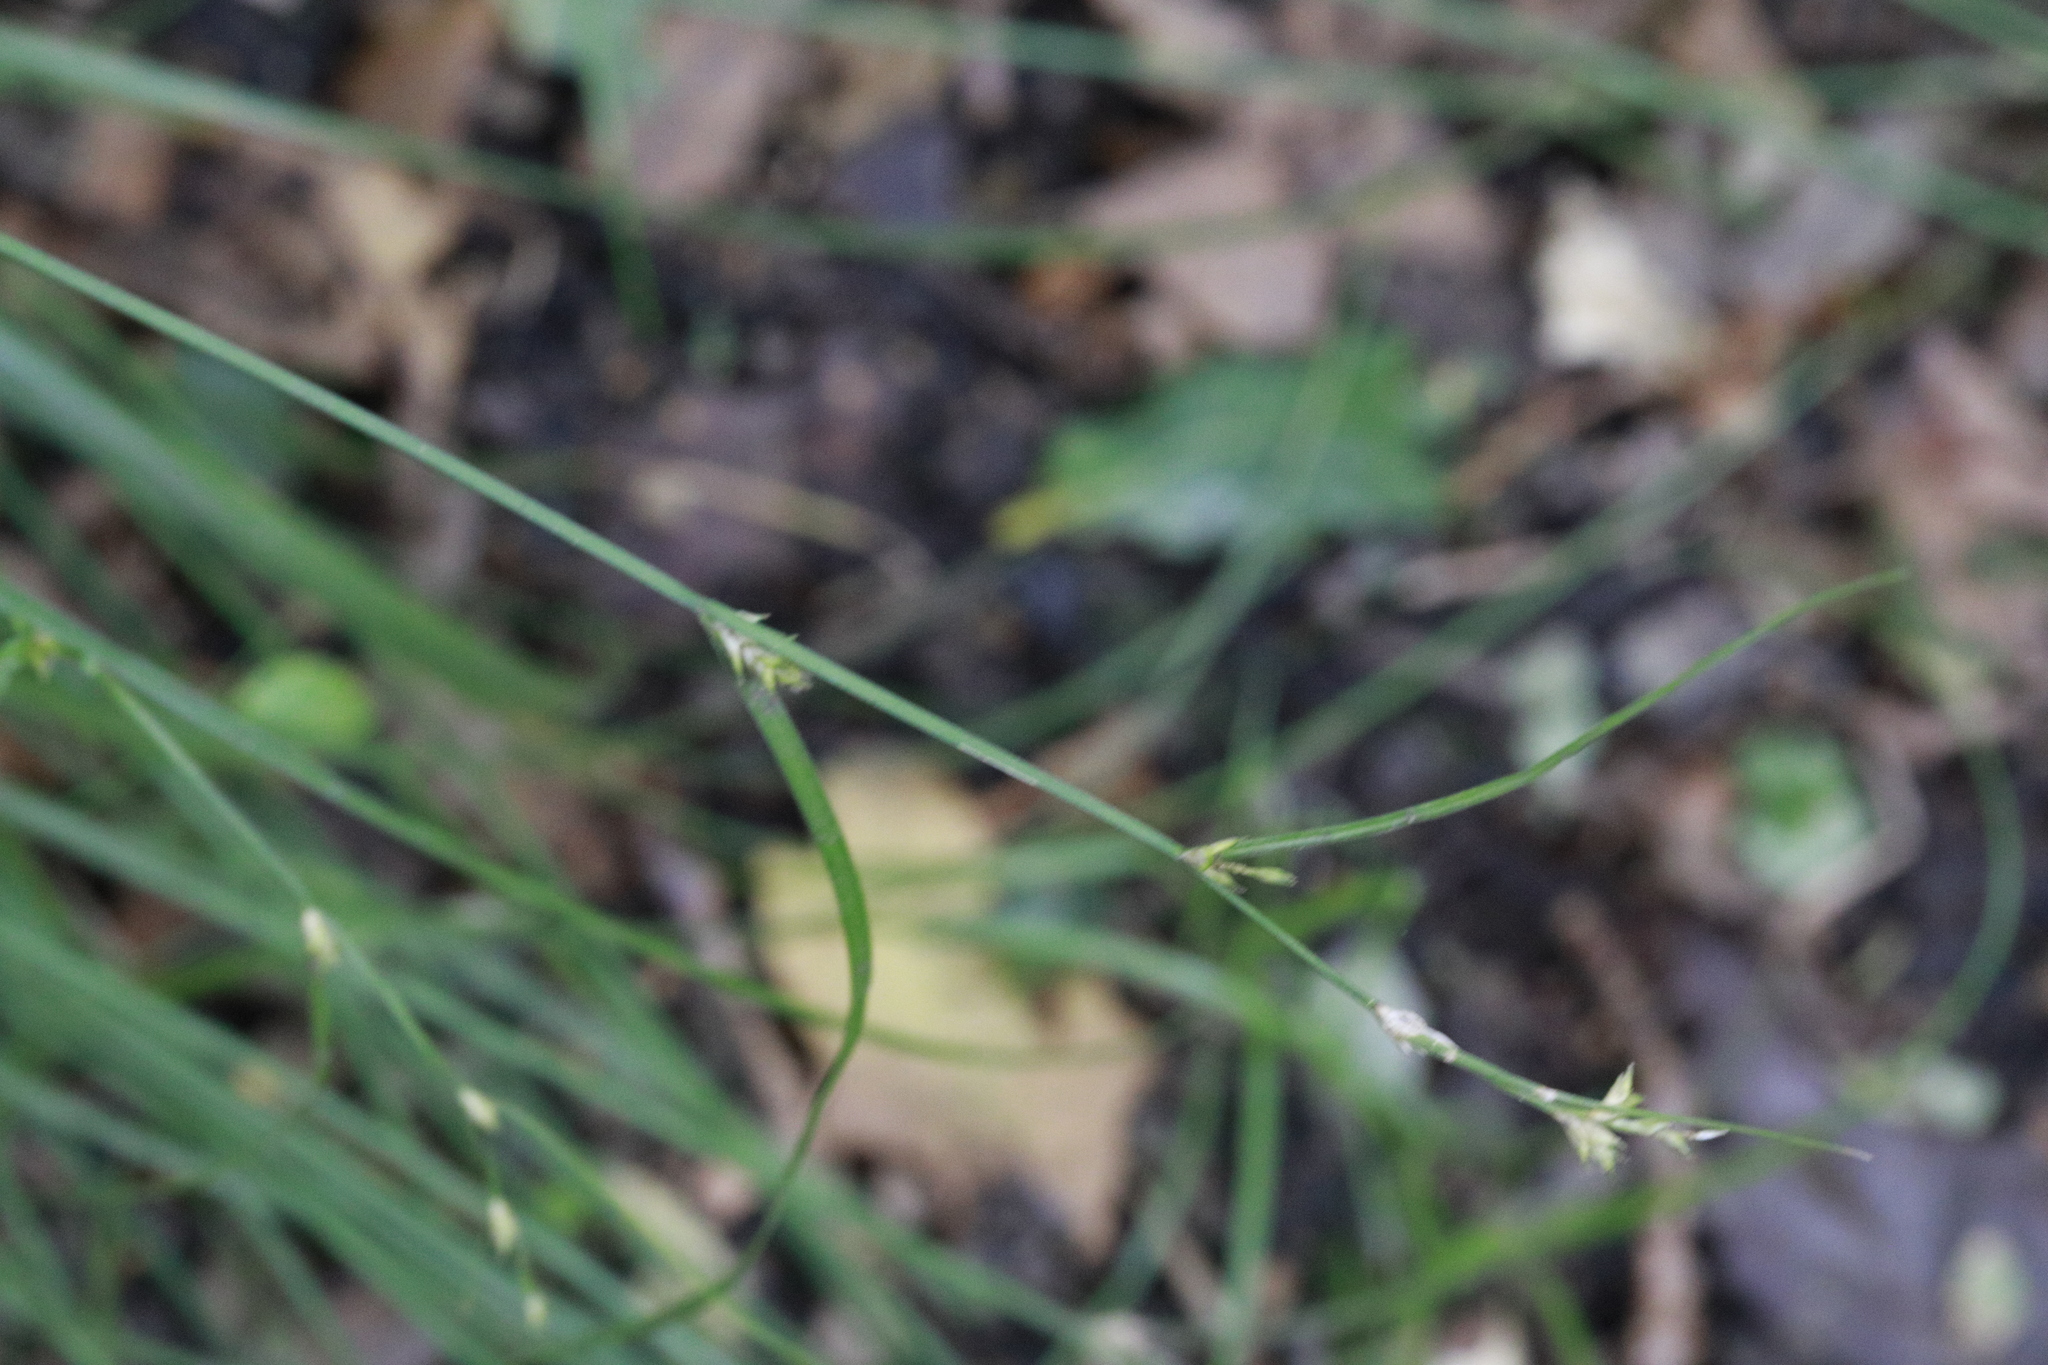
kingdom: Plantae
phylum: Tracheophyta
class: Liliopsida
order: Poales
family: Cyperaceae
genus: Carex
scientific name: Carex remota
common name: Remote sedge
